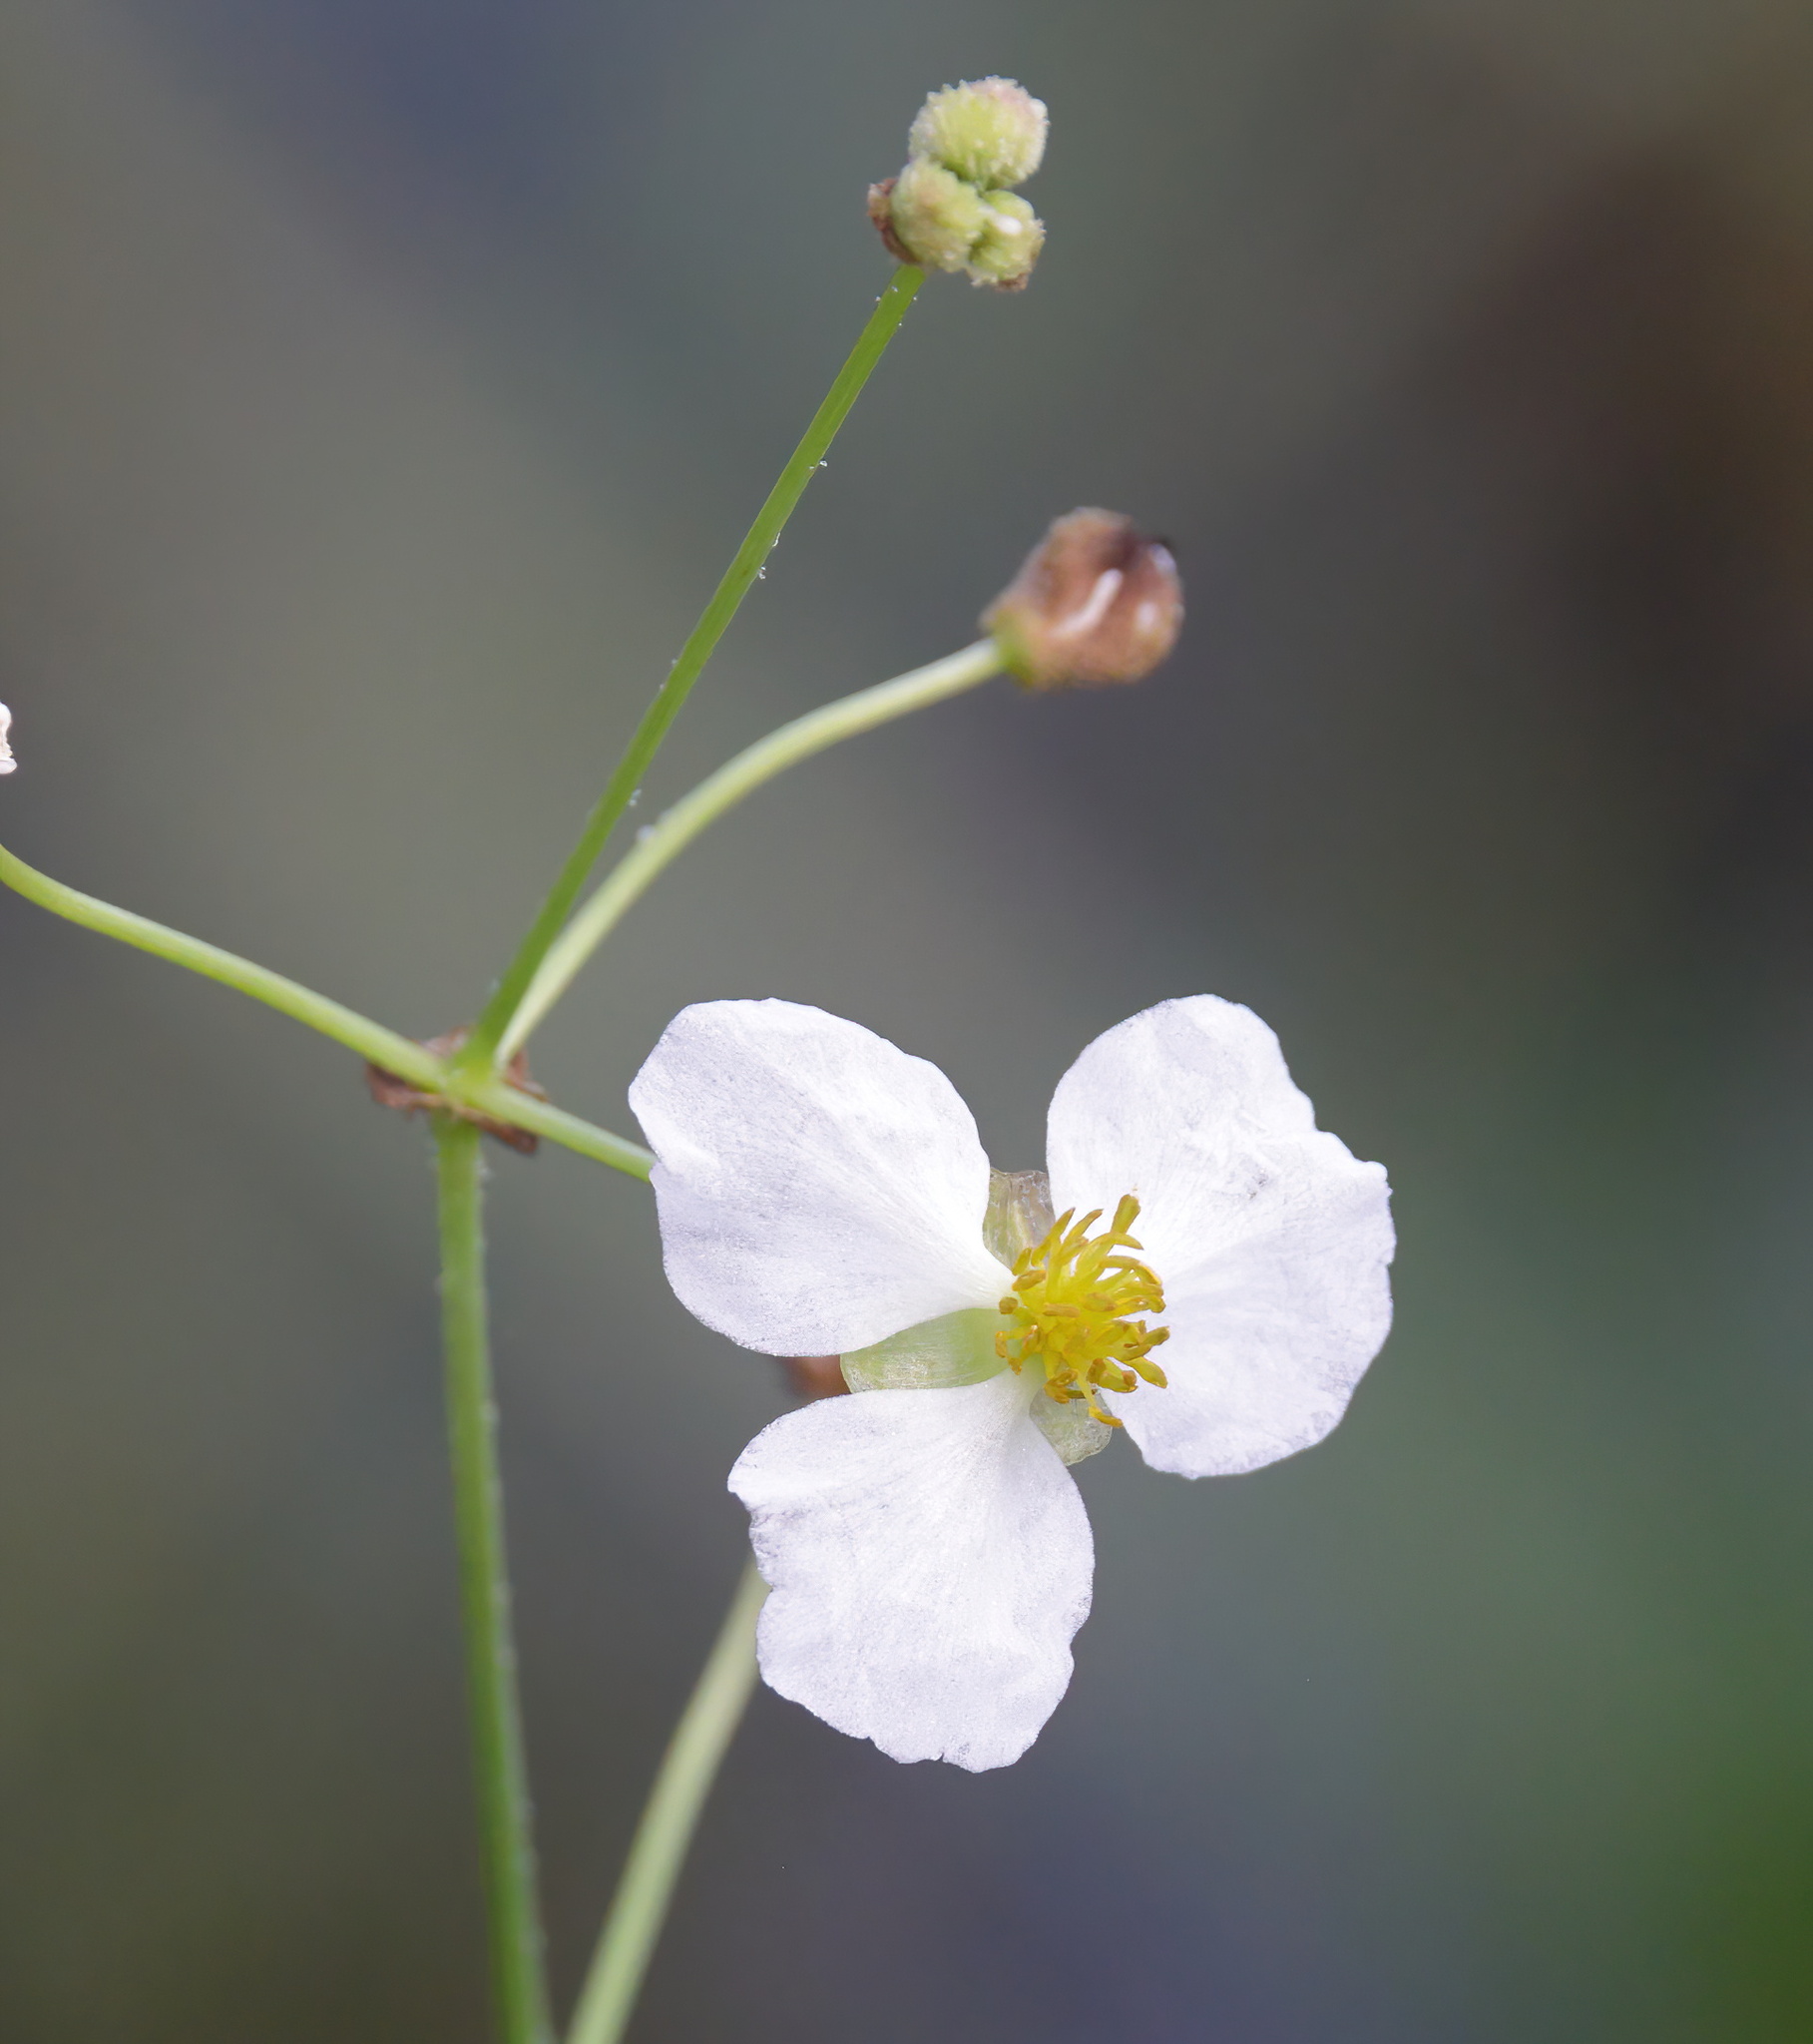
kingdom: Plantae
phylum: Tracheophyta
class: Liliopsida
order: Alismatales
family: Alismataceae
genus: Sagittaria
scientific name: Sagittaria lancifolia
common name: Lance-leaf arrowhead
